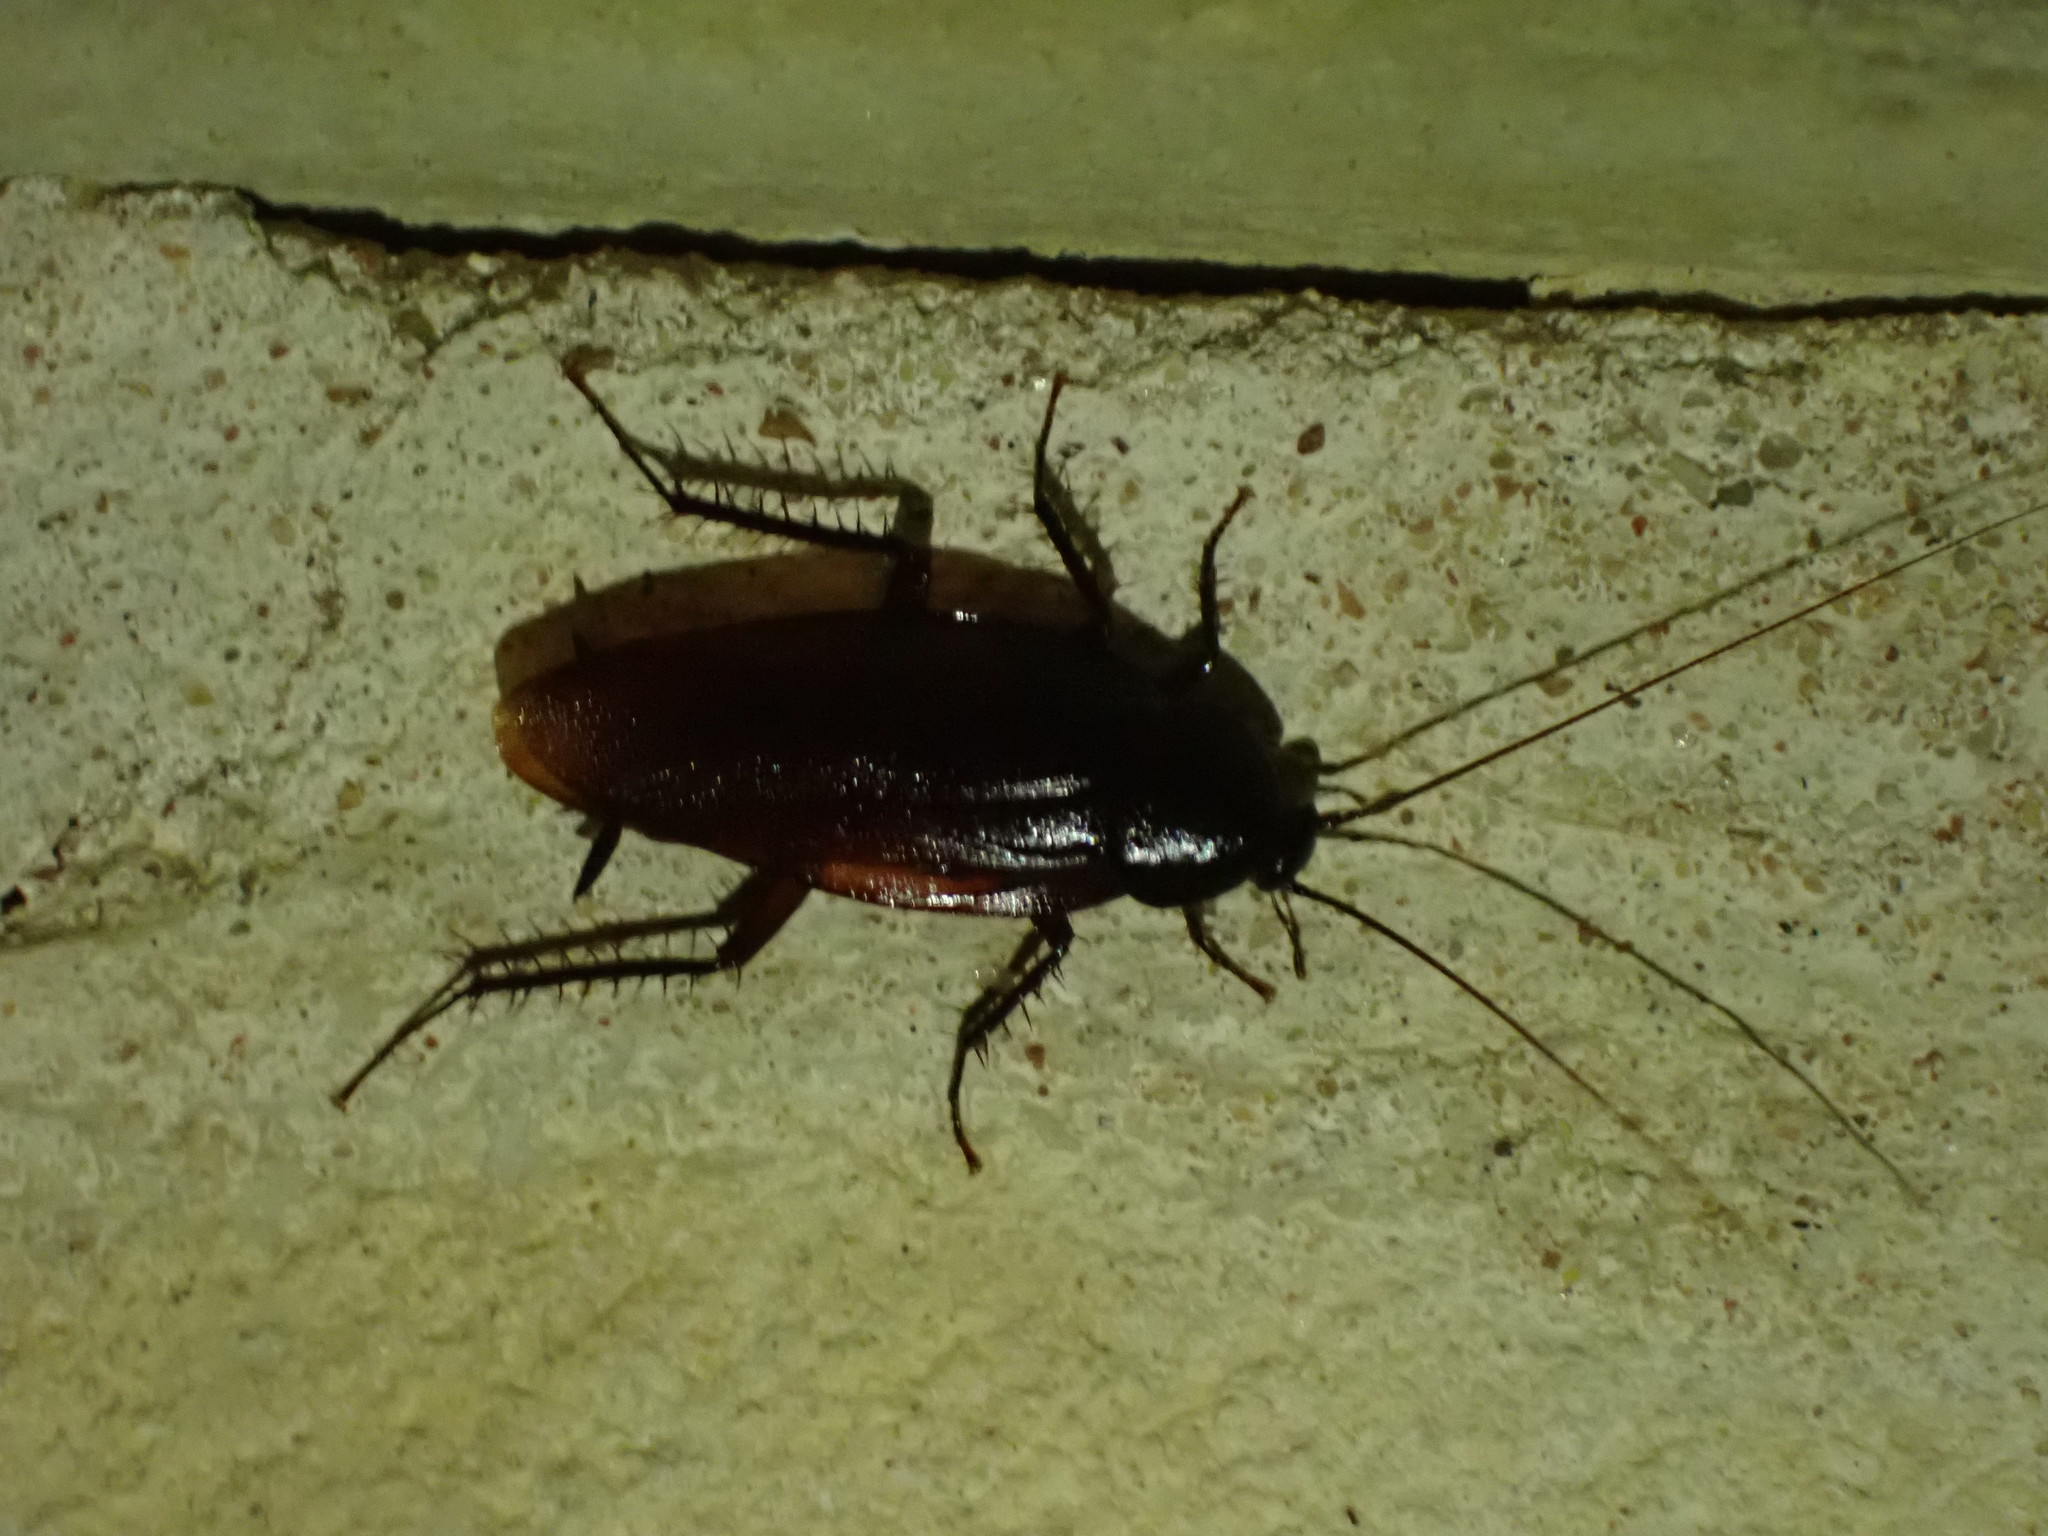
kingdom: Animalia
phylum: Arthropoda
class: Insecta
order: Blattodea
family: Blattidae
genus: Periplaneta
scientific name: Periplaneta fuliginosa
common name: Smokeybrown cockroad
